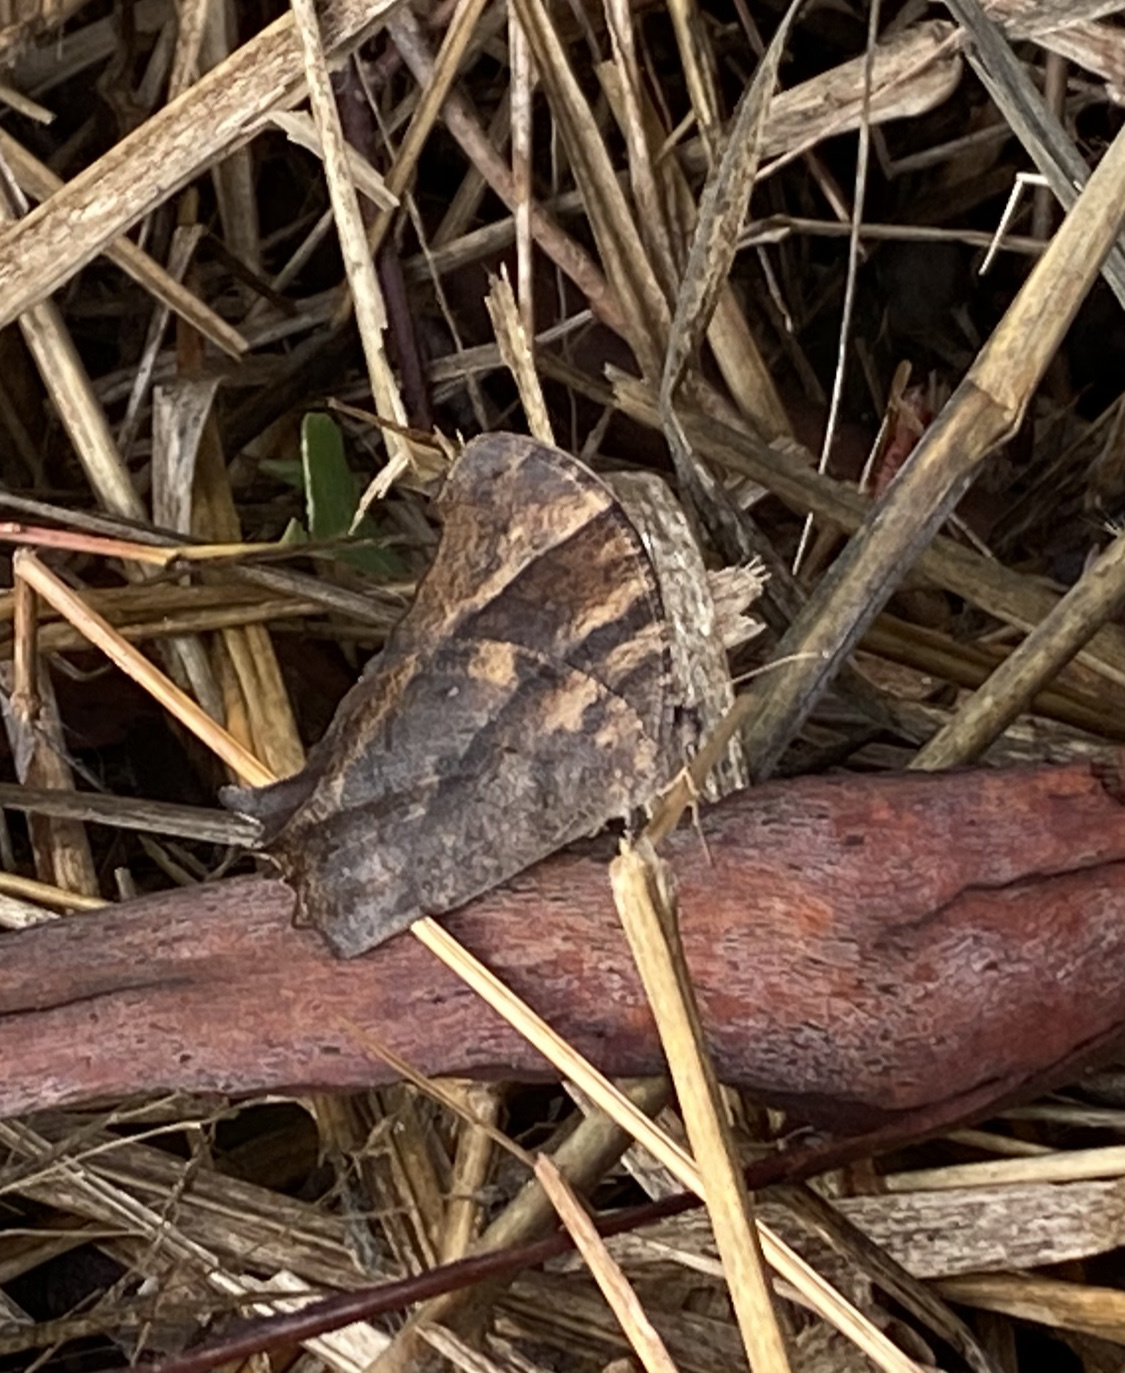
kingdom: Animalia
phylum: Arthropoda
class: Insecta
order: Lepidoptera
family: Nymphalidae
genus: Melanitis
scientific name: Melanitis leda
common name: Twilight brown
